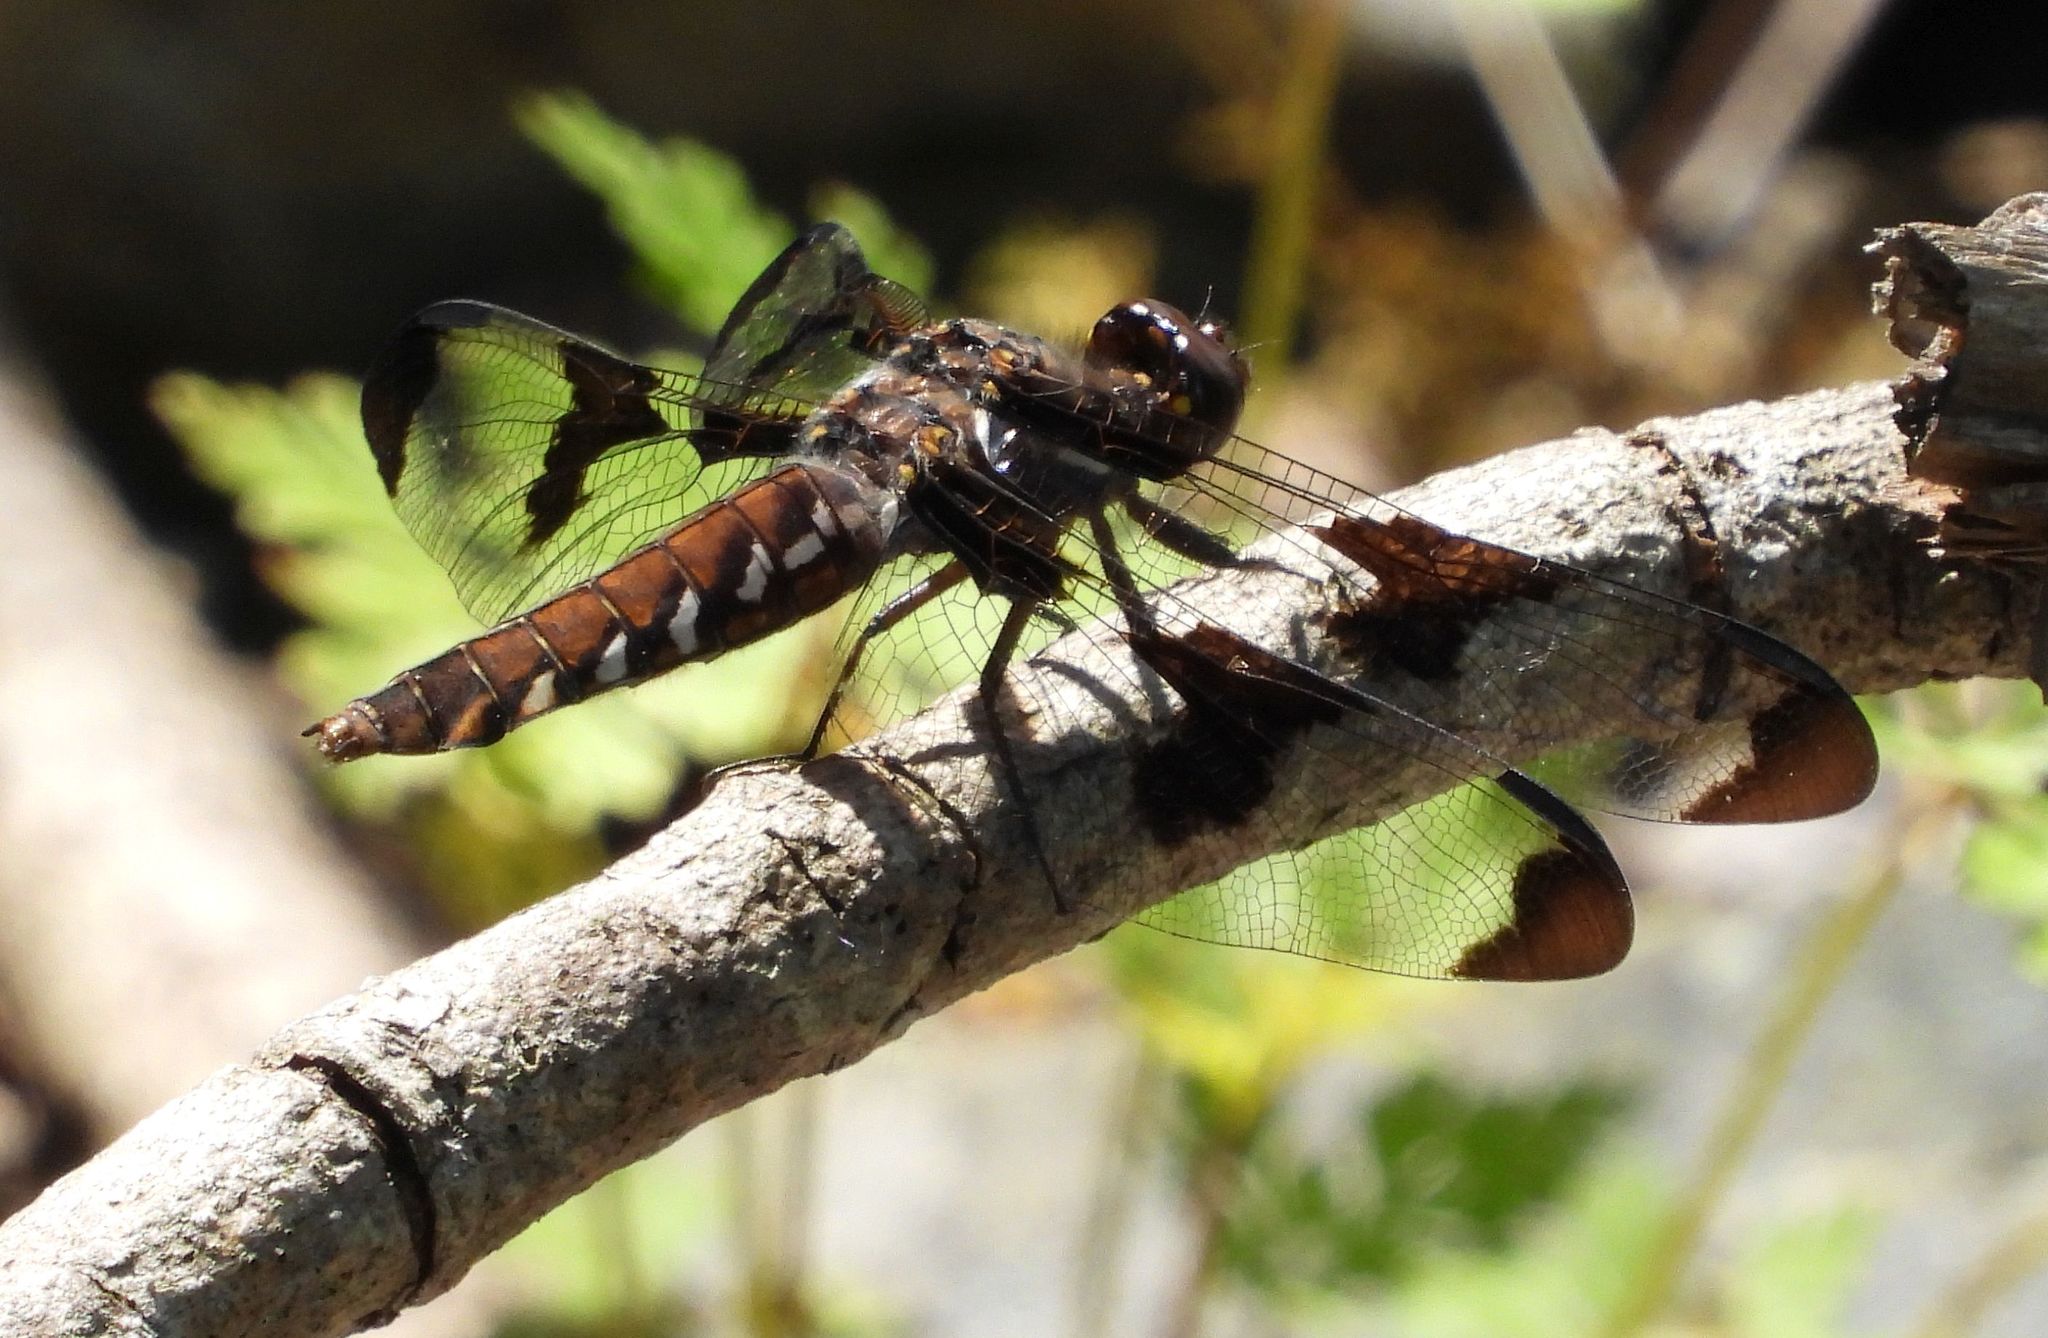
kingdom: Animalia
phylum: Arthropoda
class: Insecta
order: Odonata
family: Libellulidae
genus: Plathemis
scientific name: Plathemis lydia
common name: Common whitetail
